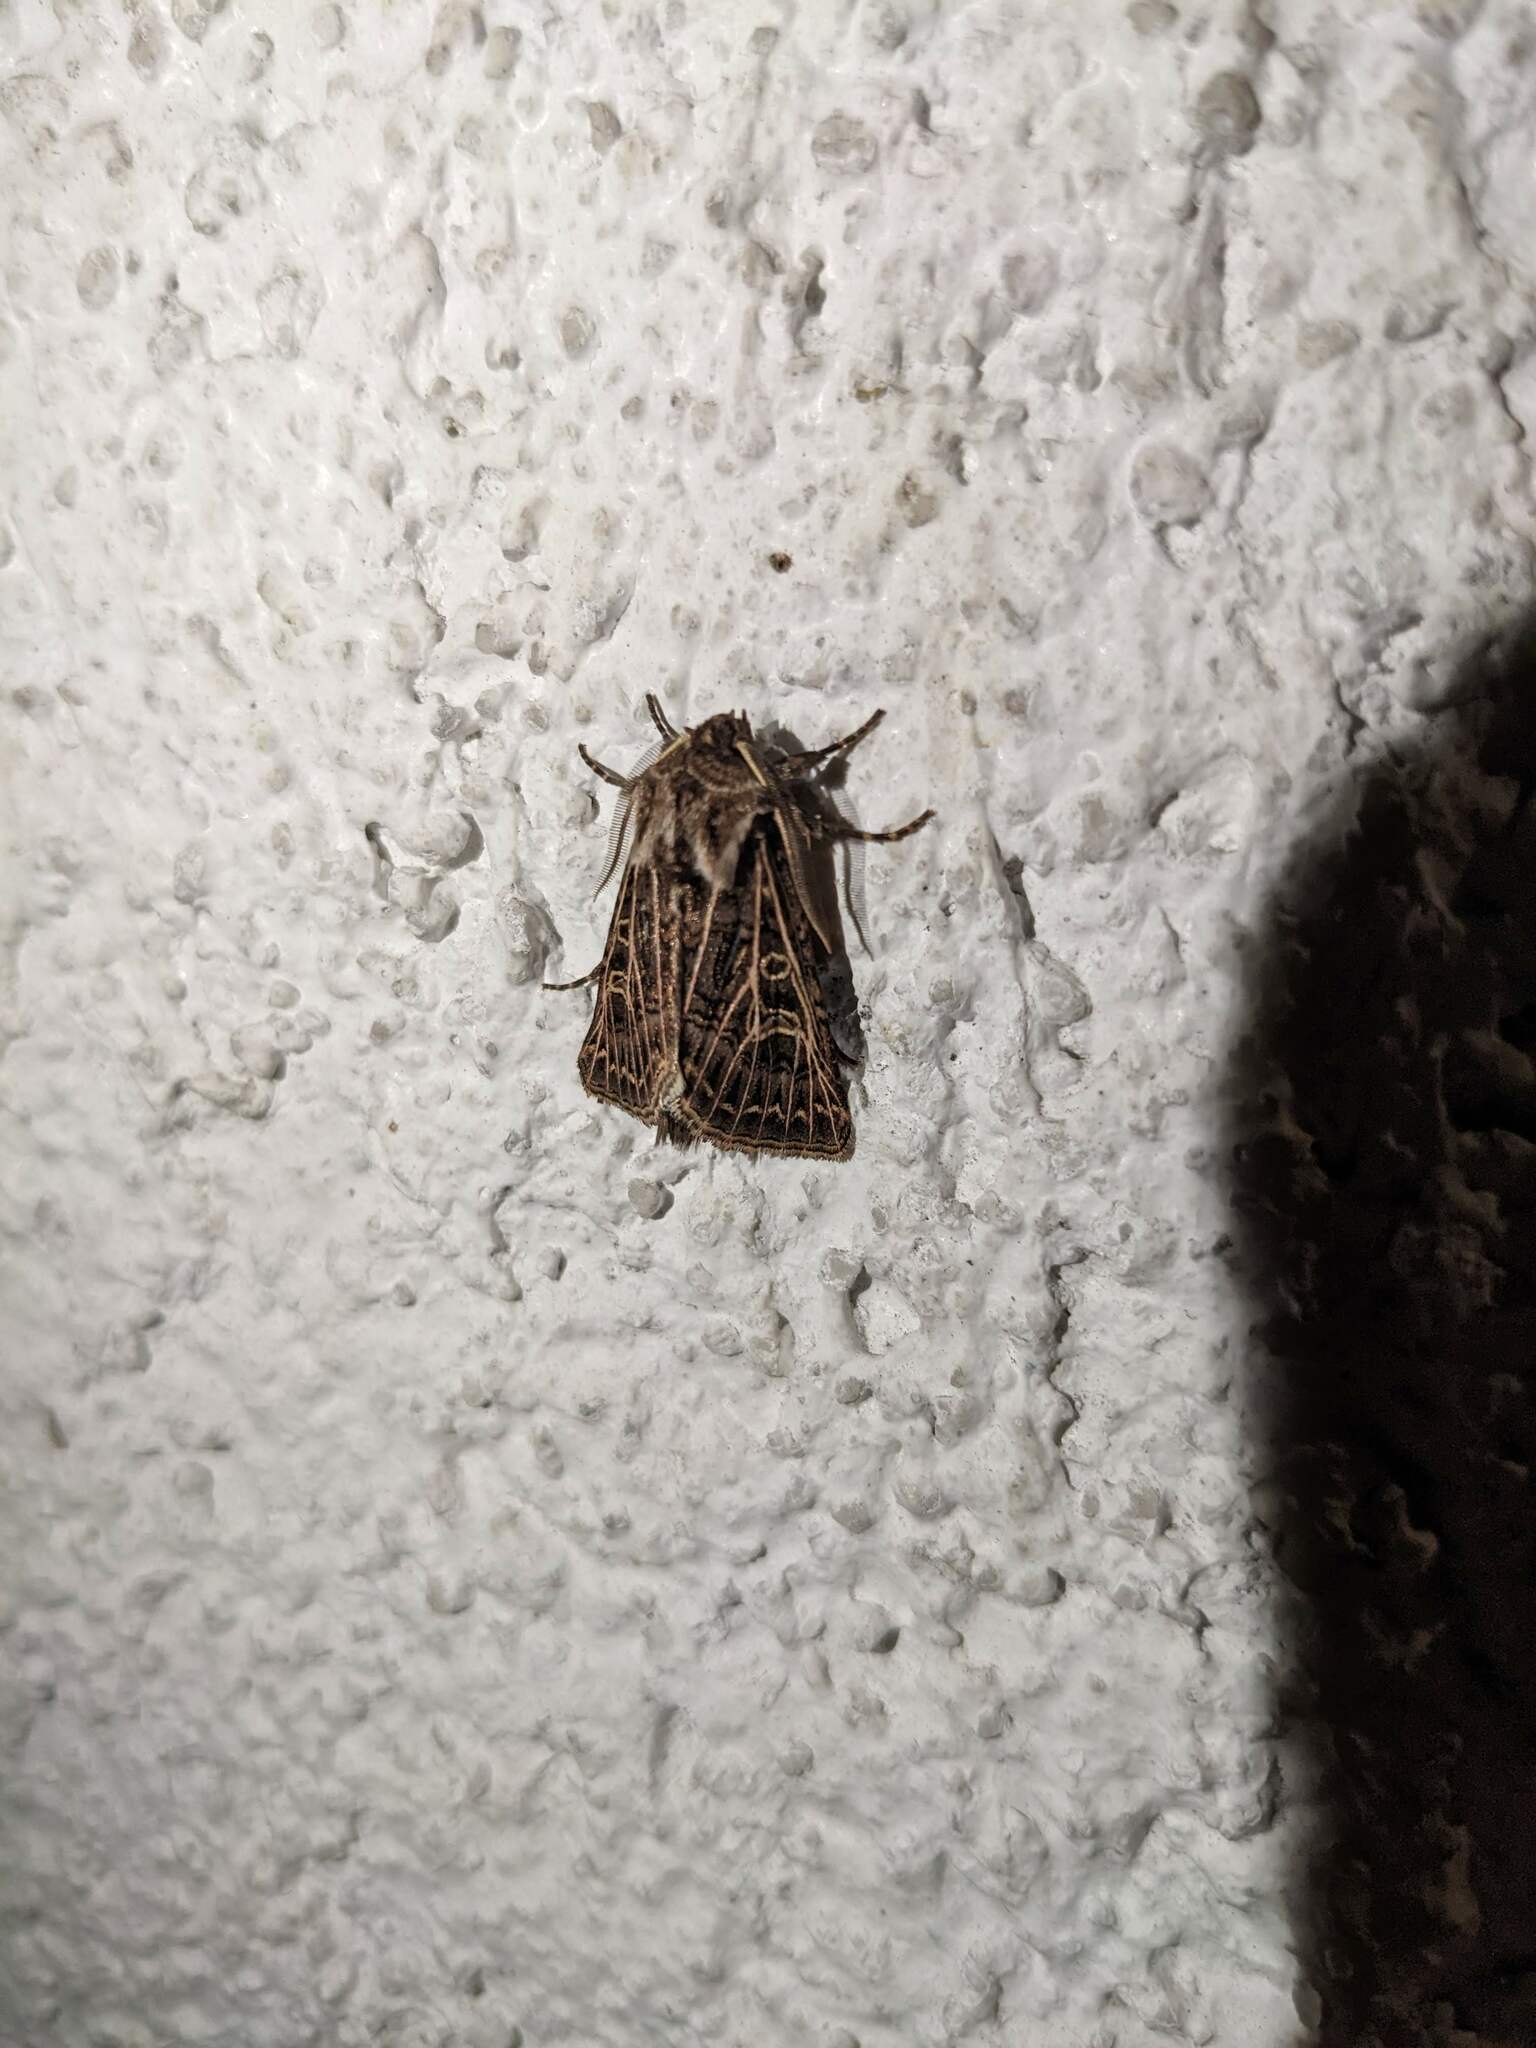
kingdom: Animalia
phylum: Arthropoda
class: Insecta
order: Lepidoptera
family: Noctuidae
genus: Tholera
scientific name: Tholera decimalis
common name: Feathered gothic
